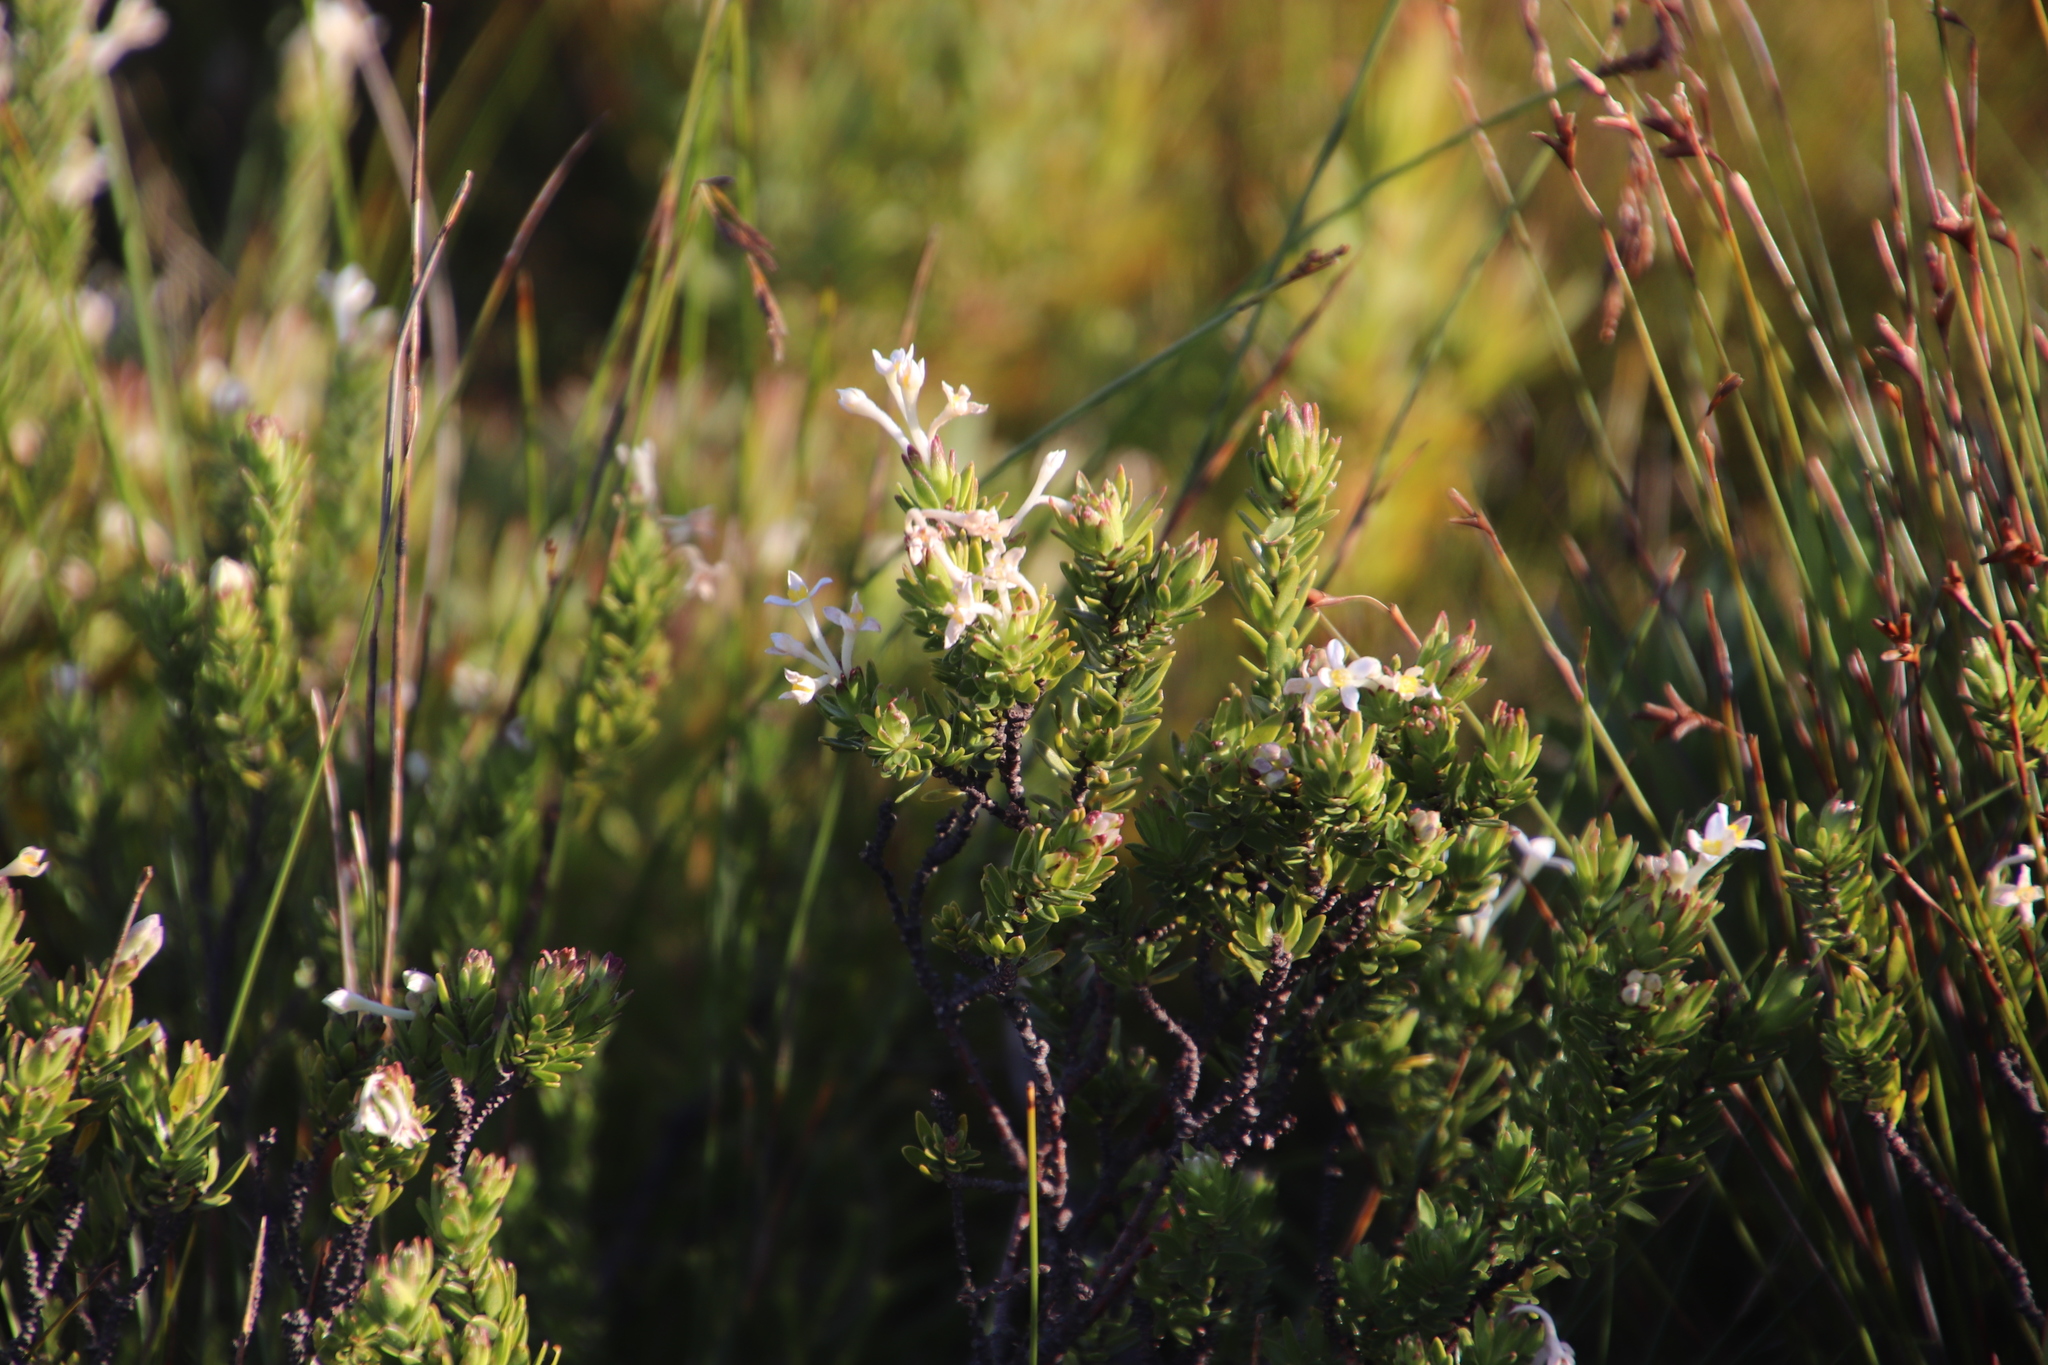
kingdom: Plantae
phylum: Tracheophyta
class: Magnoliopsida
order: Malvales
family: Thymelaeaceae
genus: Gnidia
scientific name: Gnidia tomentosa
